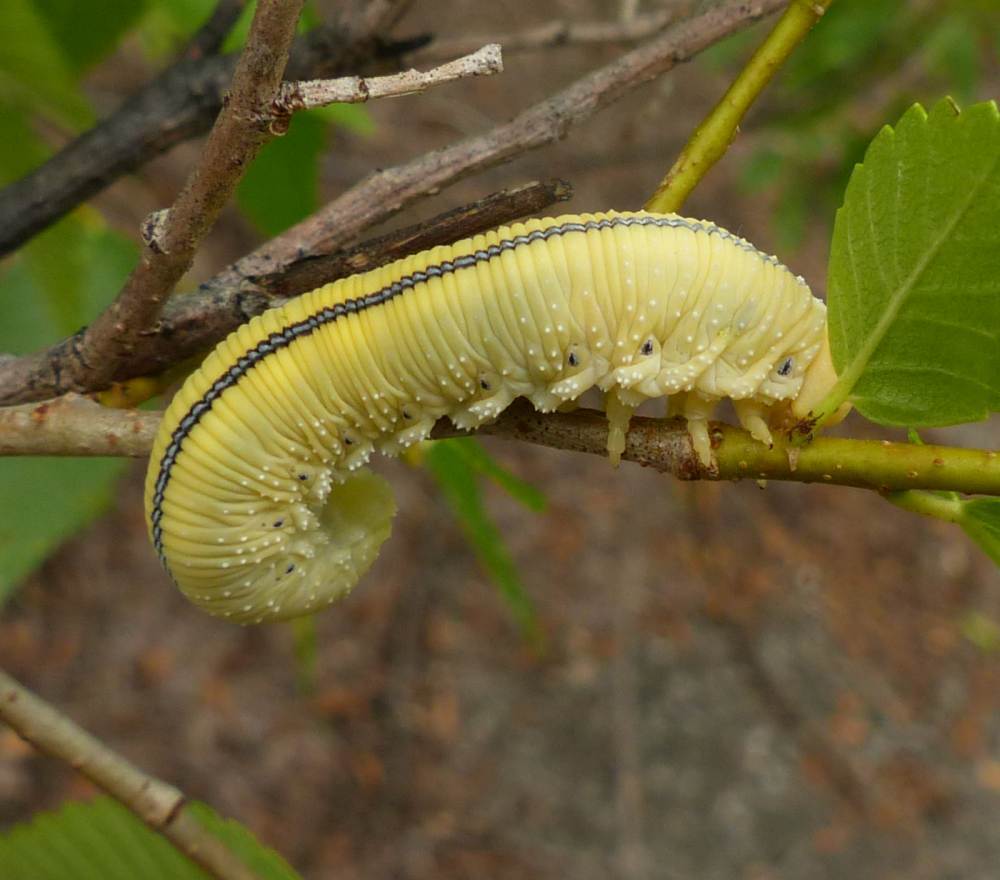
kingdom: Animalia
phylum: Arthropoda
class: Insecta
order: Hymenoptera
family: Cimbicidae
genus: Cimbex
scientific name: Cimbex americana
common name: Elm sawfly
